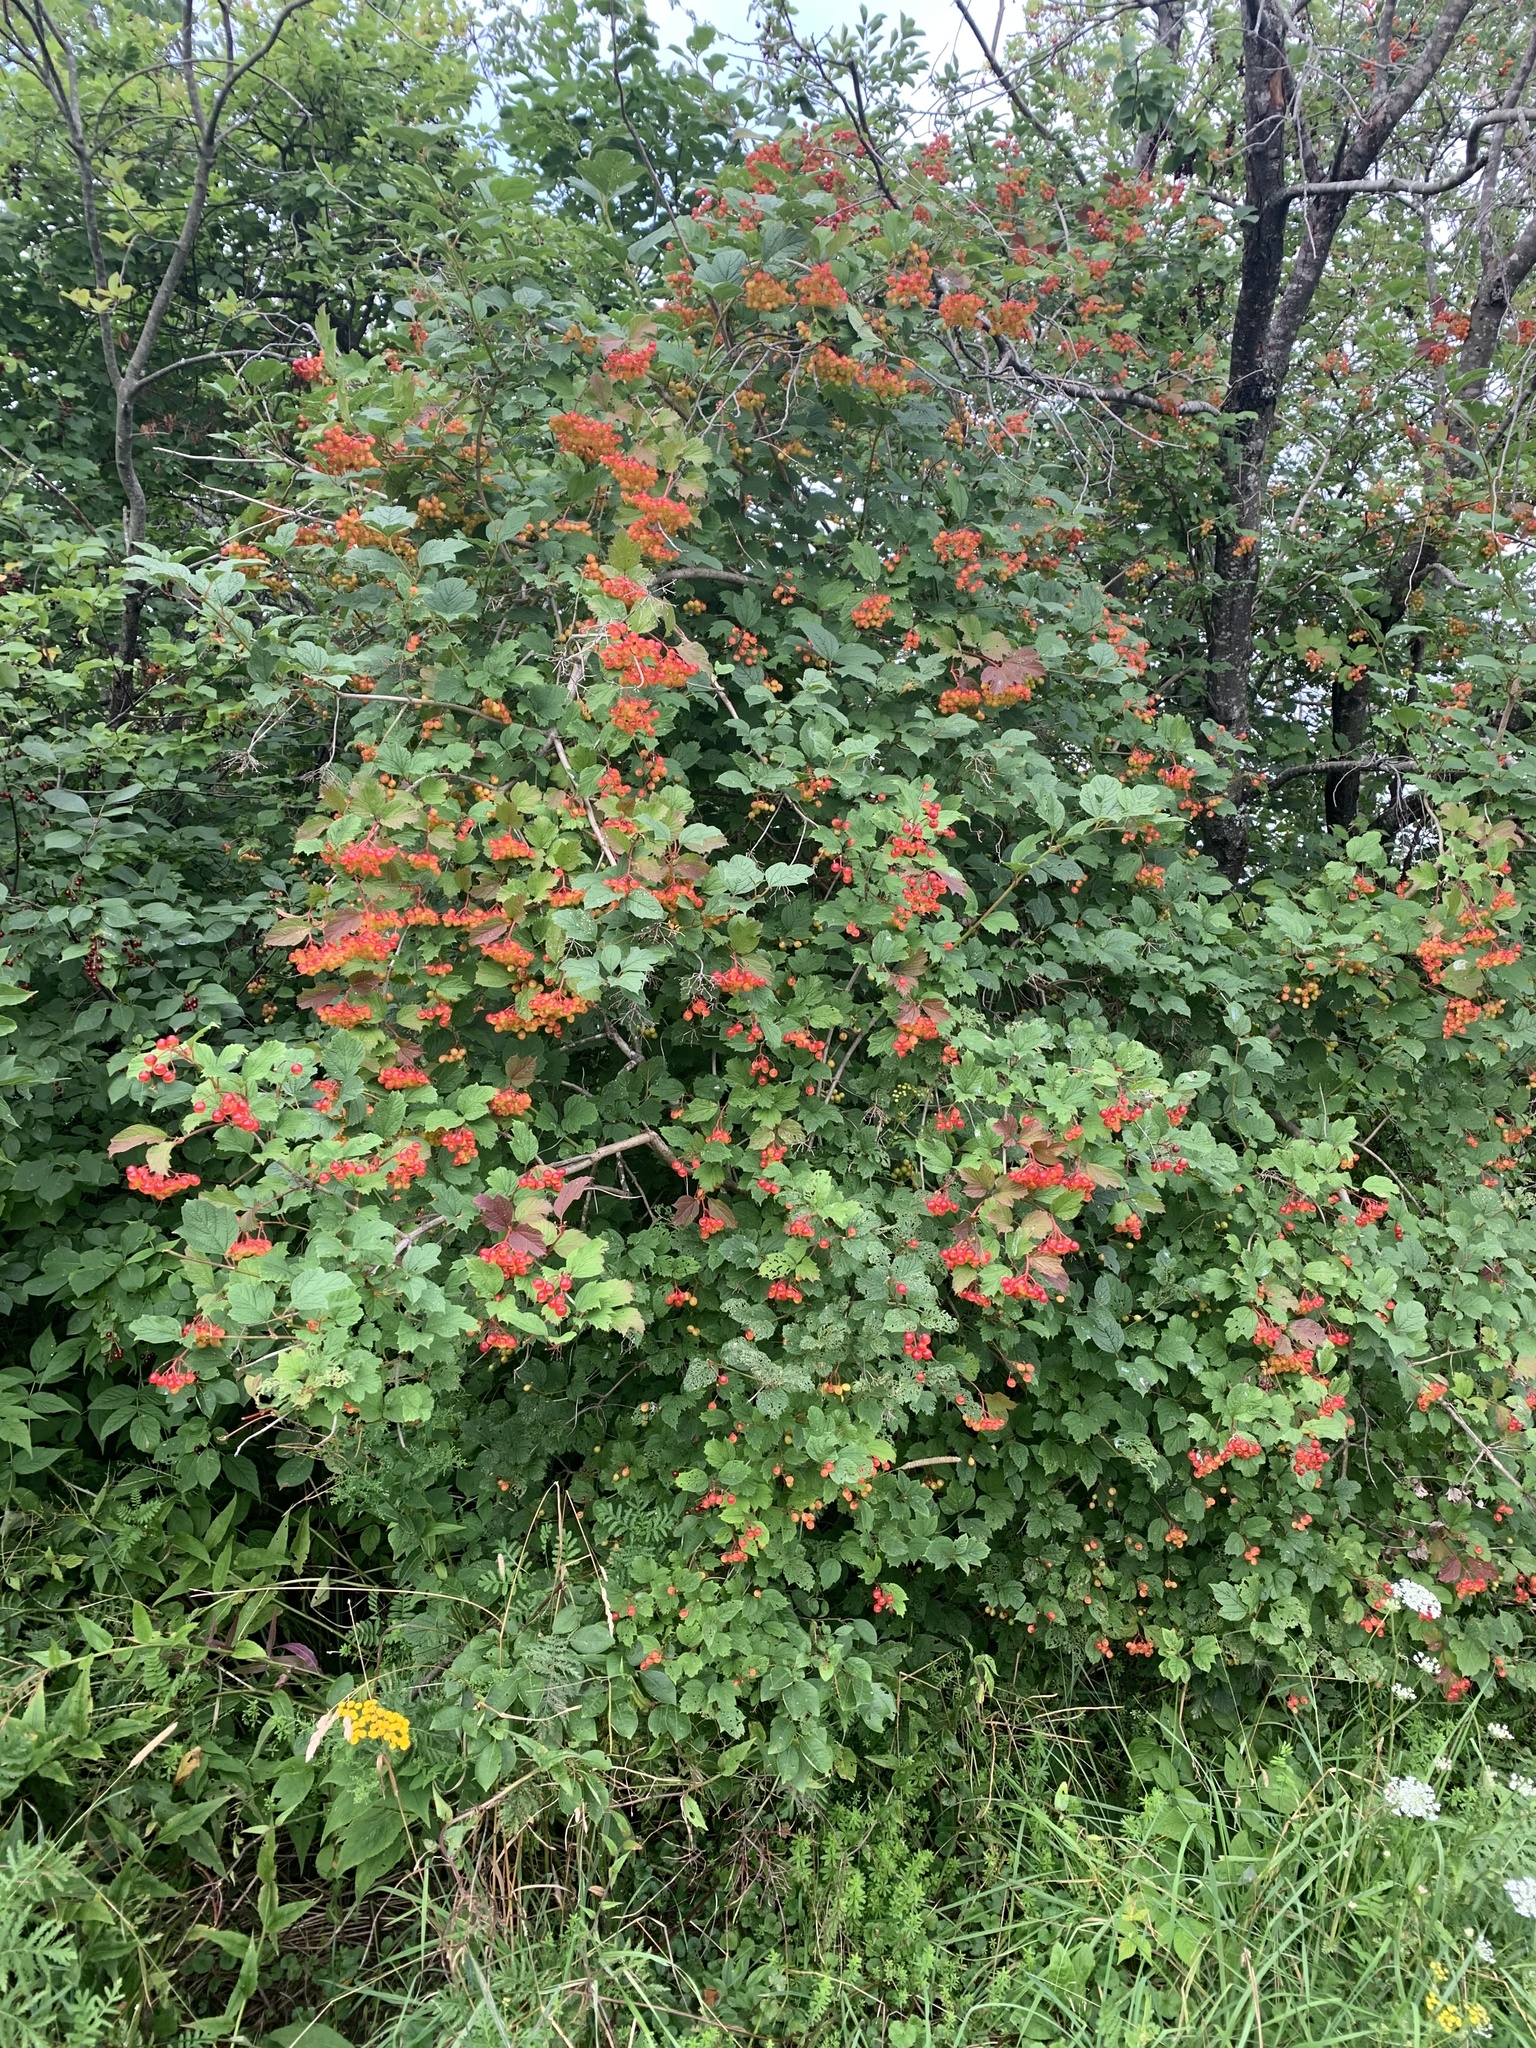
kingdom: Plantae
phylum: Tracheophyta
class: Magnoliopsida
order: Dipsacales
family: Viburnaceae
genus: Viburnum
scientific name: Viburnum opulus
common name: Guelder-rose
